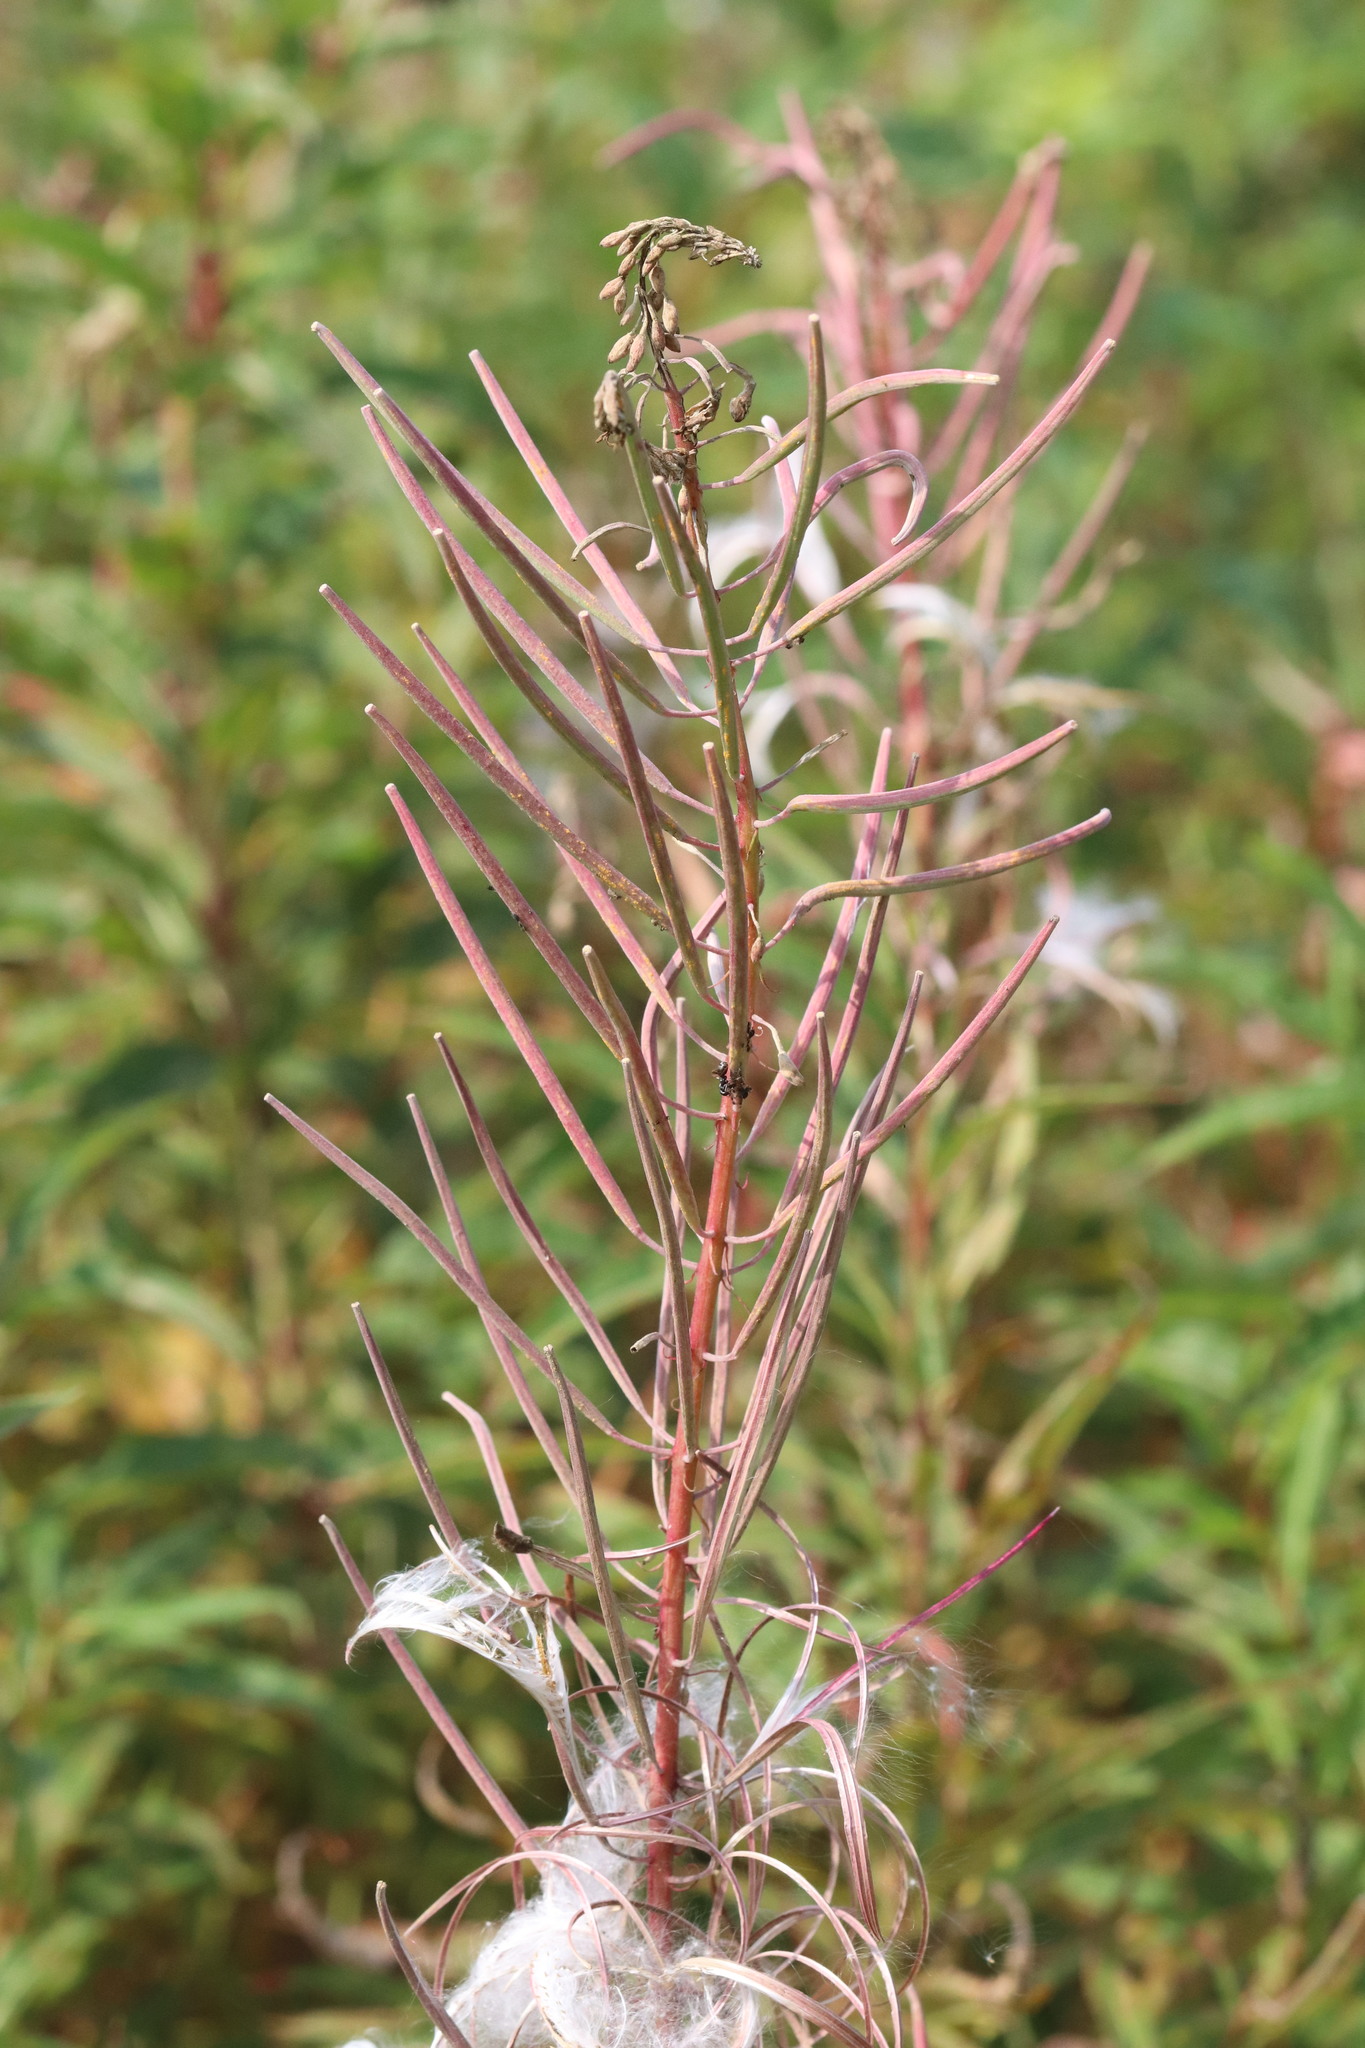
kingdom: Plantae
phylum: Tracheophyta
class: Magnoliopsida
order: Myrtales
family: Onagraceae
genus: Chamaenerion
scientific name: Chamaenerion angustifolium
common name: Fireweed
